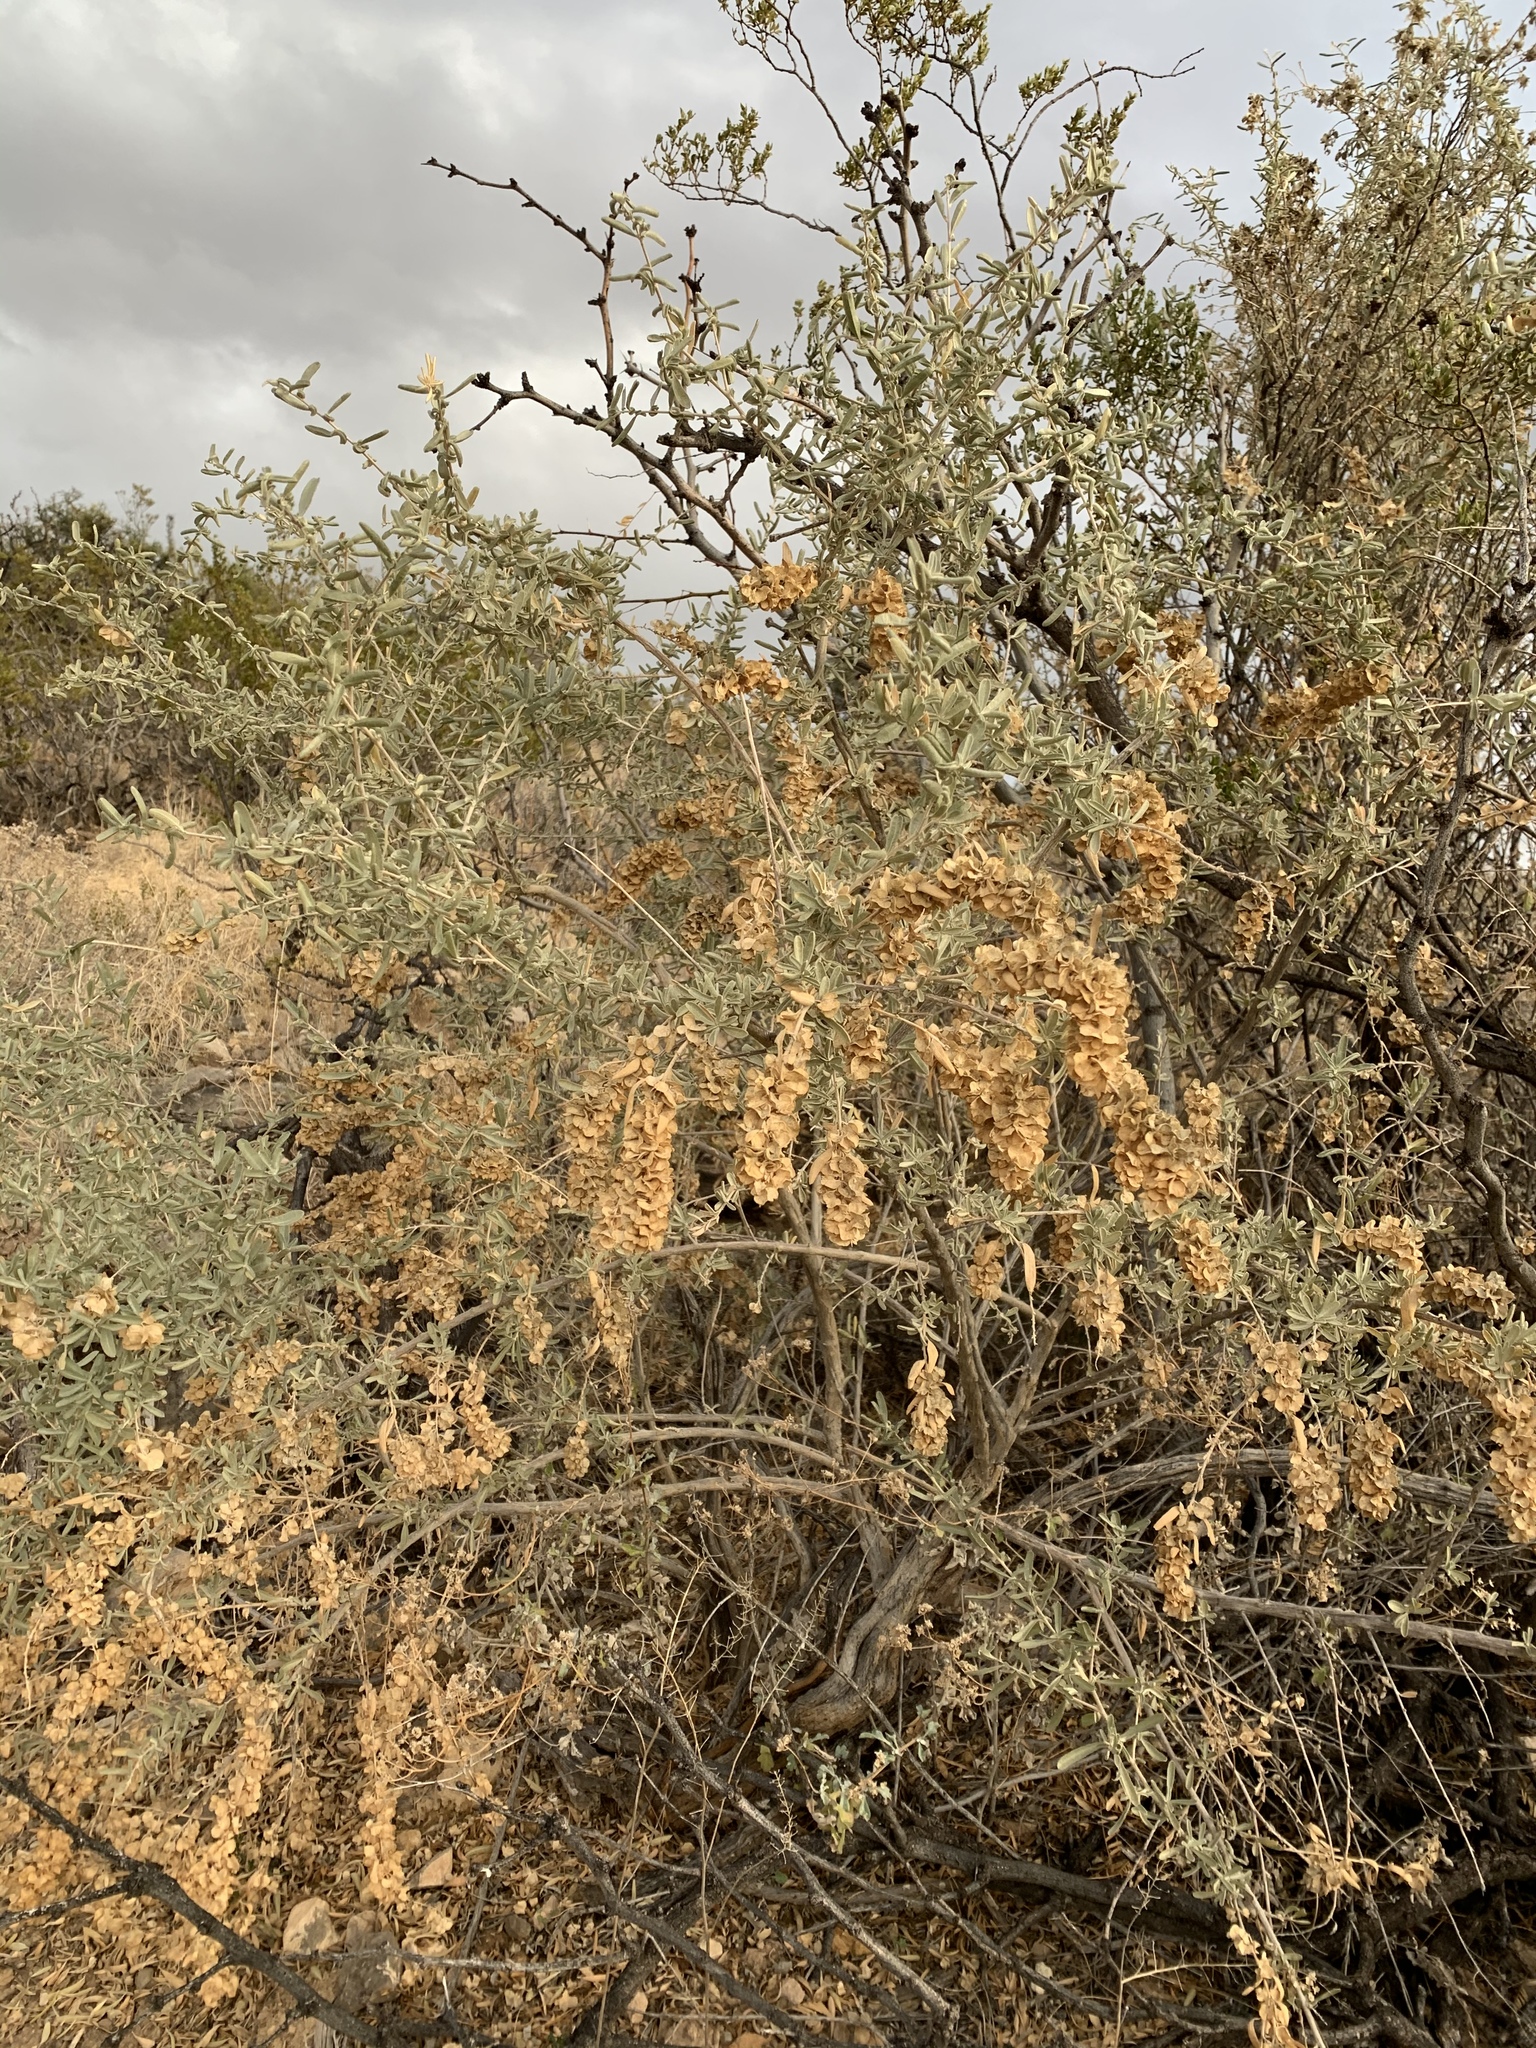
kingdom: Plantae
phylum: Tracheophyta
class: Magnoliopsida
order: Caryophyllales
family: Amaranthaceae
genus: Atriplex
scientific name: Atriplex canescens
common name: Four-wing saltbush
